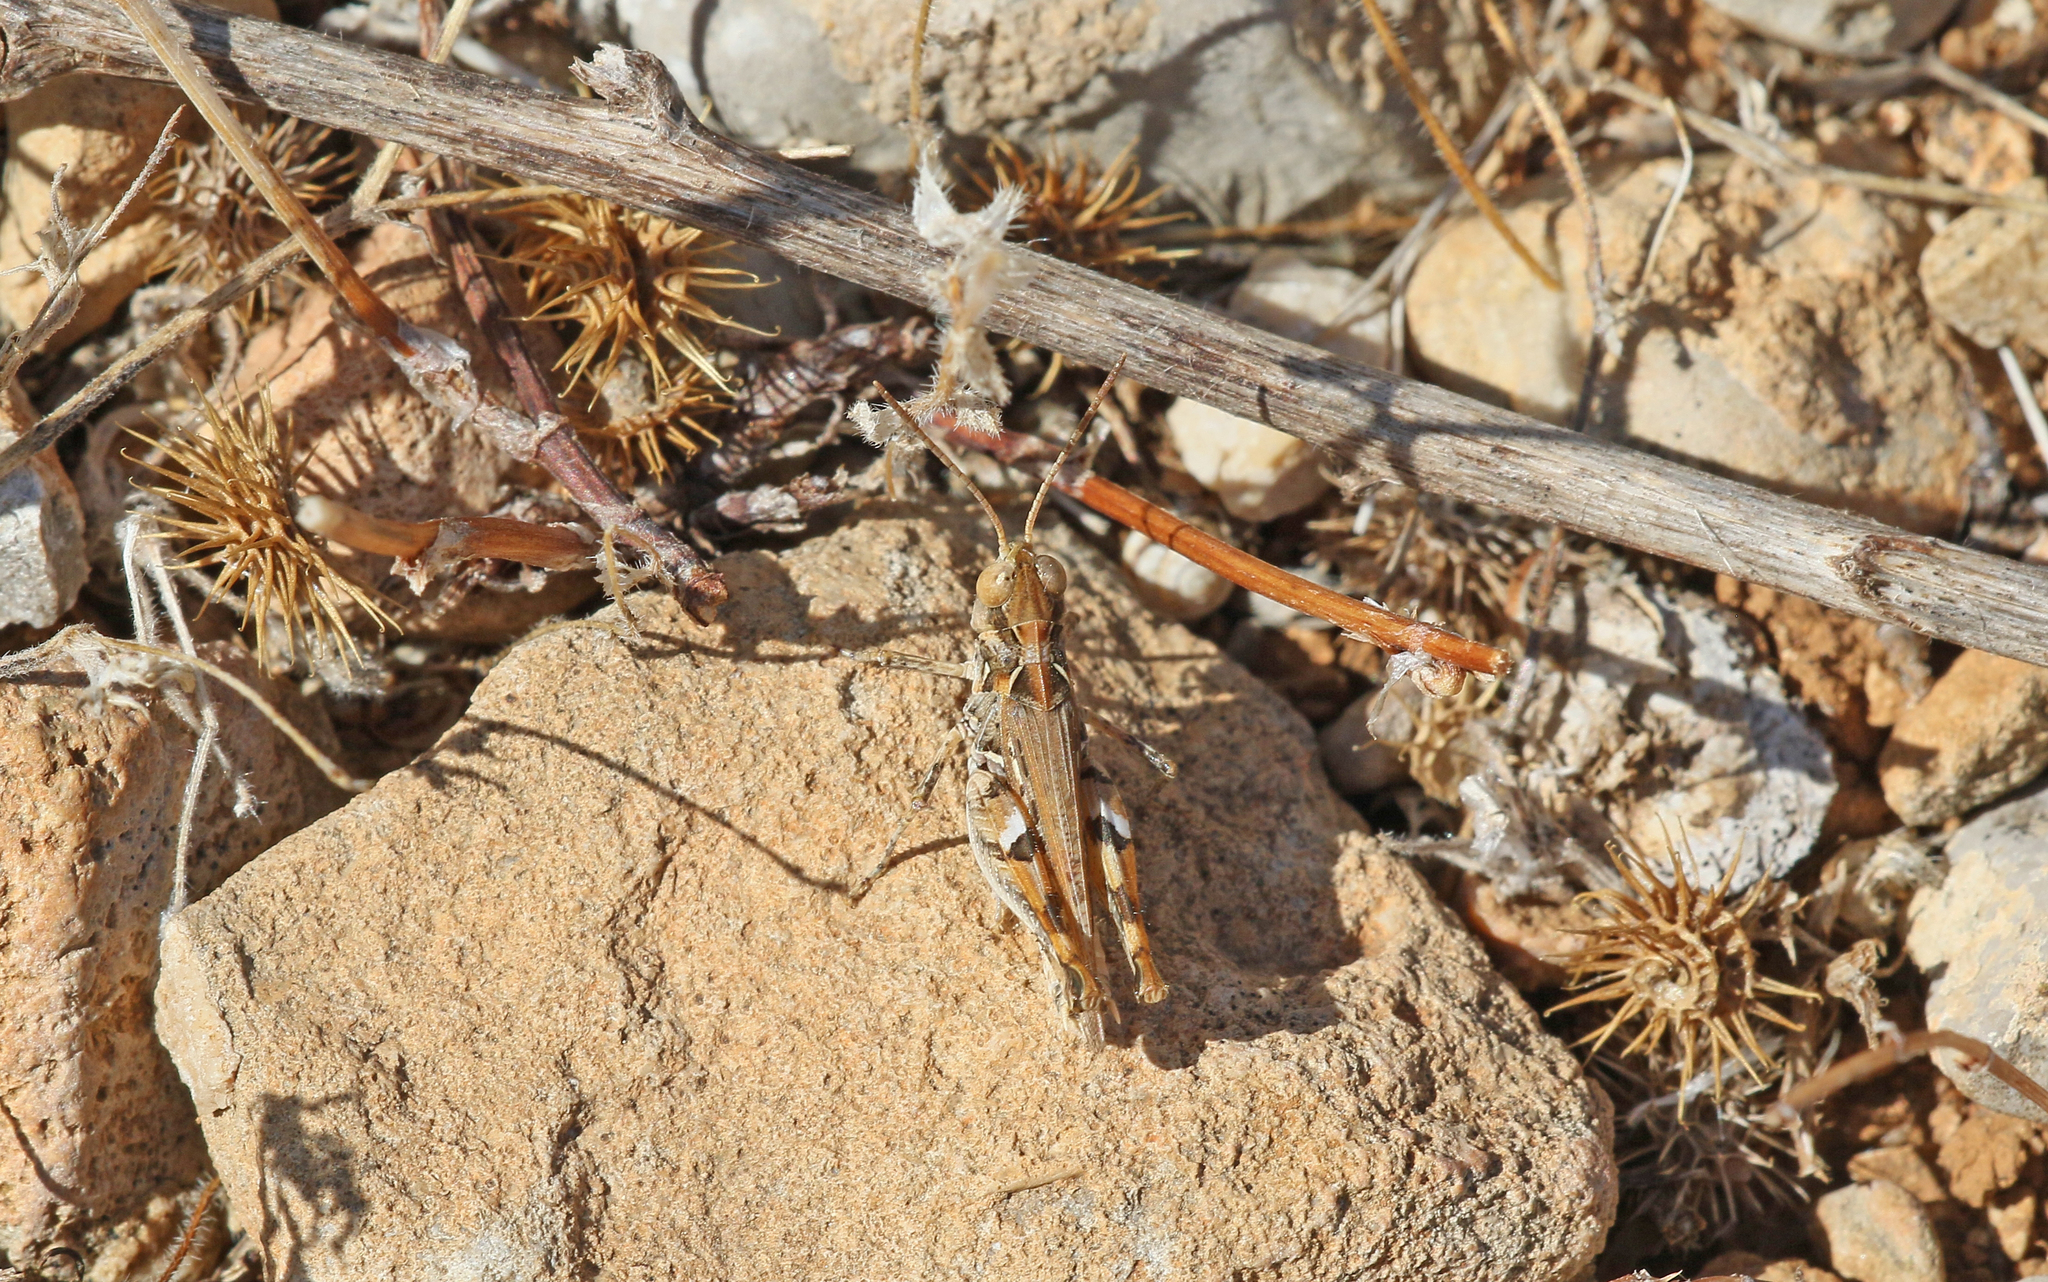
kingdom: Animalia
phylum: Arthropoda
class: Insecta
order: Orthoptera
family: Acrididae
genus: Dociostaurus
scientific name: Dociostaurus jagoi
